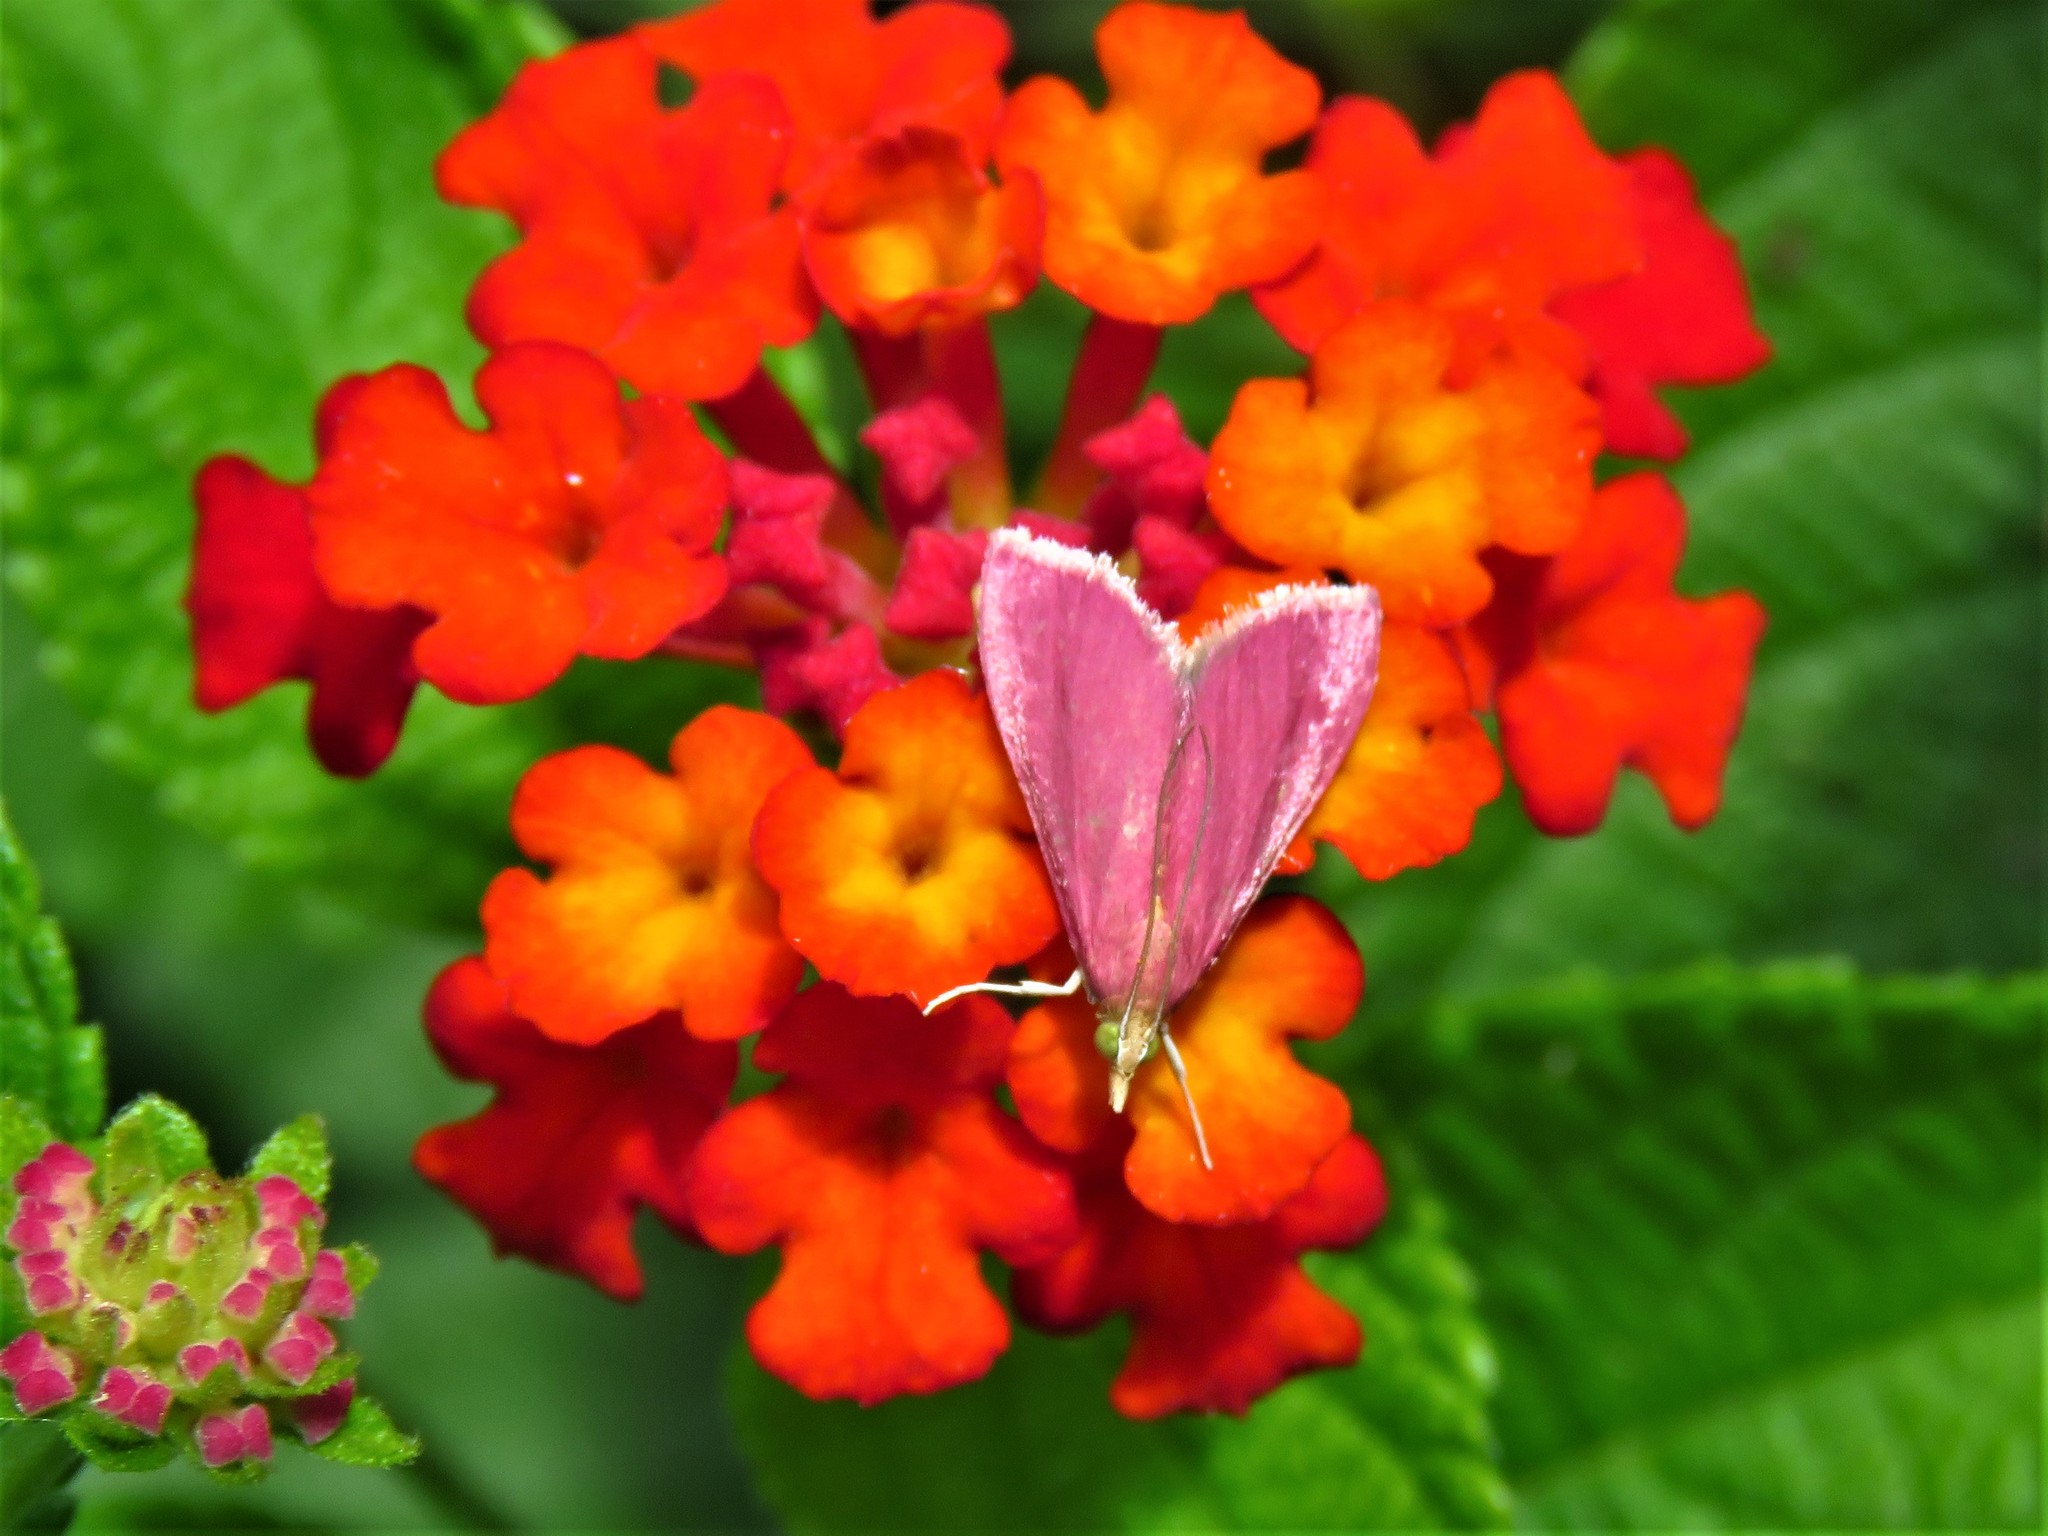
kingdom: Animalia
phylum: Arthropoda
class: Insecta
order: Lepidoptera
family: Crambidae
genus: Pyrausta
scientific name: Pyrausta inornatalis
